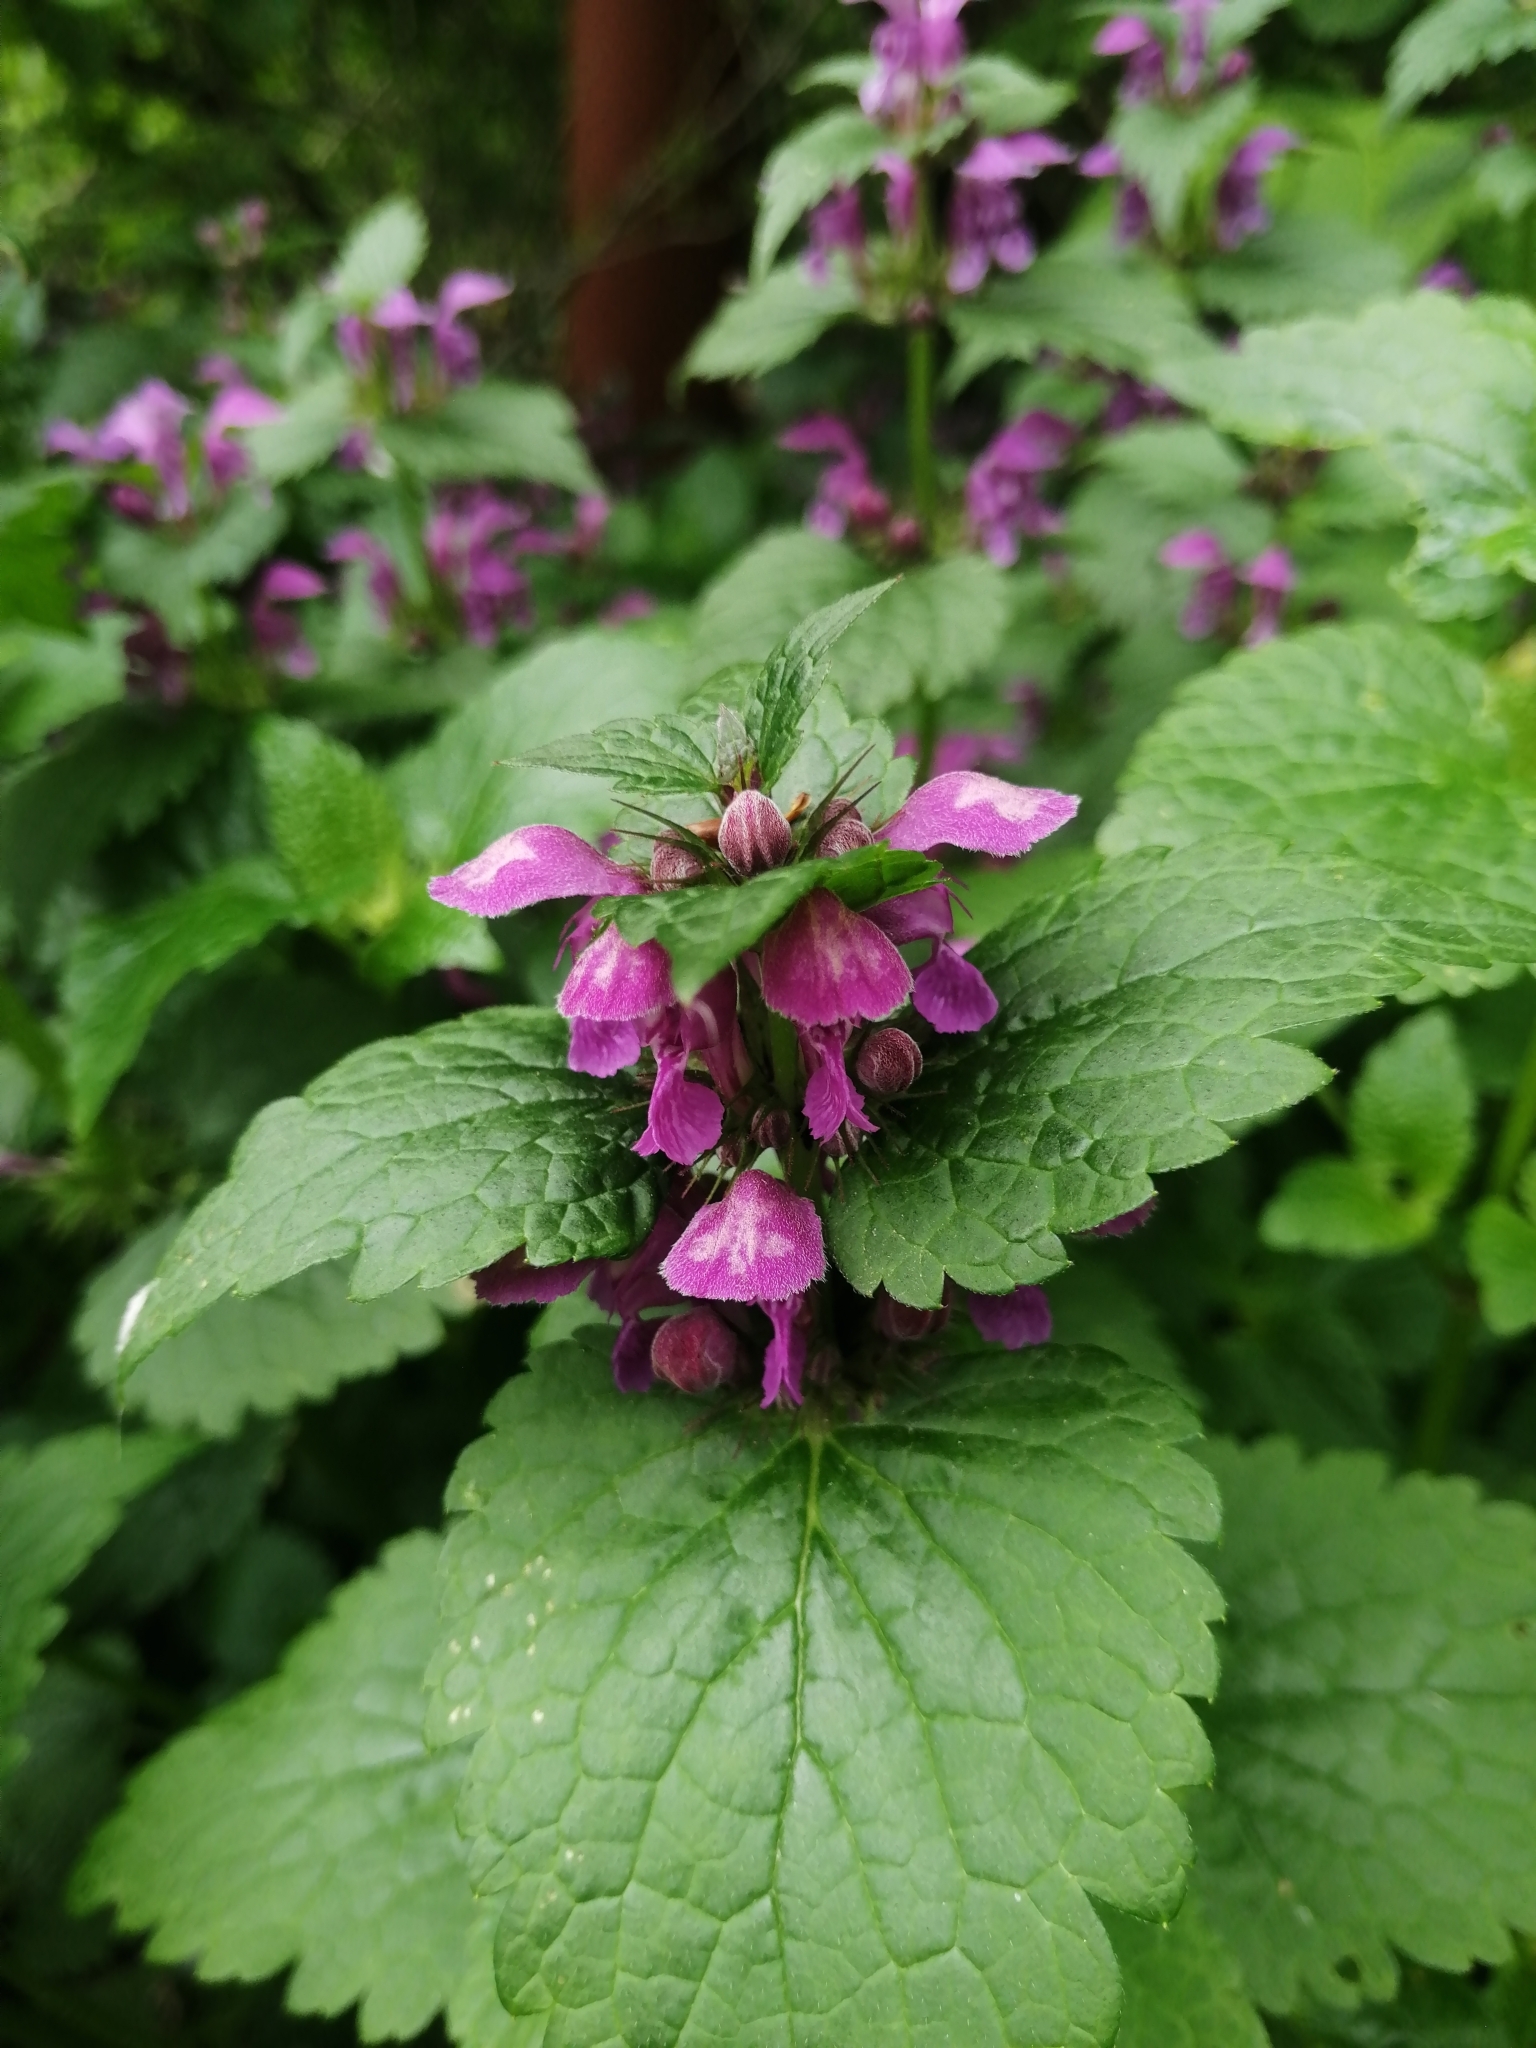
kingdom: Plantae
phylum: Tracheophyta
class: Magnoliopsida
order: Lamiales
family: Lamiaceae
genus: Lamium
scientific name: Lamium maculatum
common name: Spotted dead-nettle
